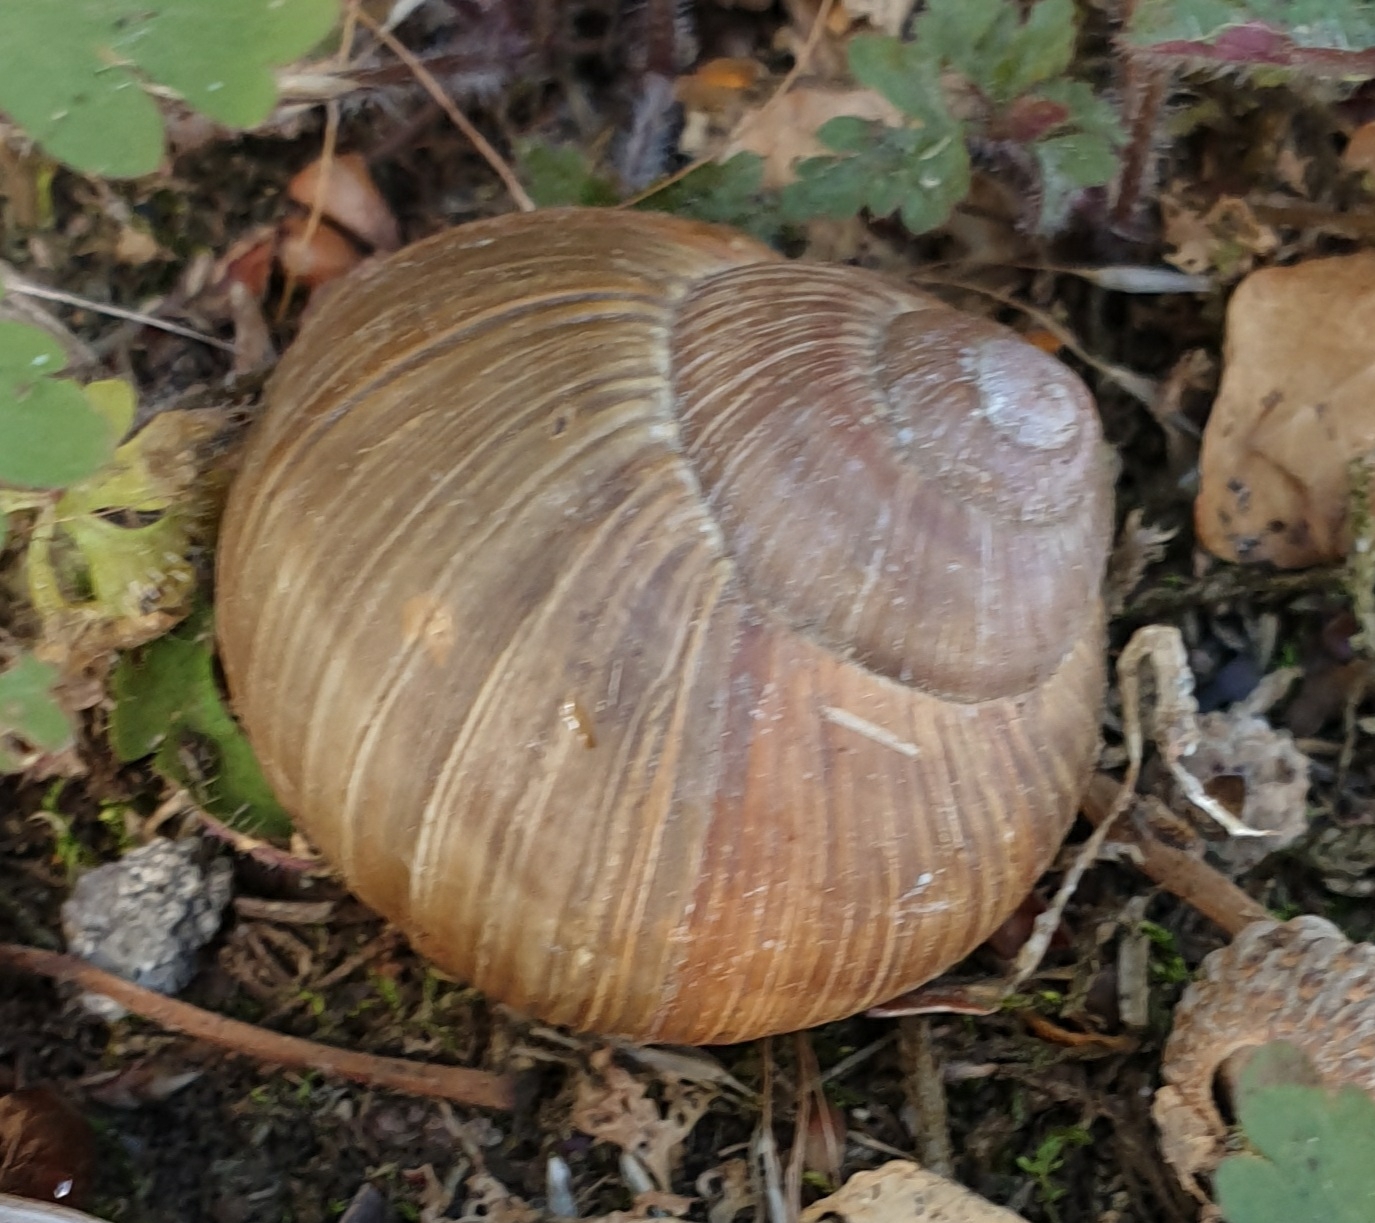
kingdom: Animalia
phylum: Mollusca
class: Gastropoda
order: Stylommatophora
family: Helicidae
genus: Helix
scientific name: Helix pomatia
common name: Roman snail
